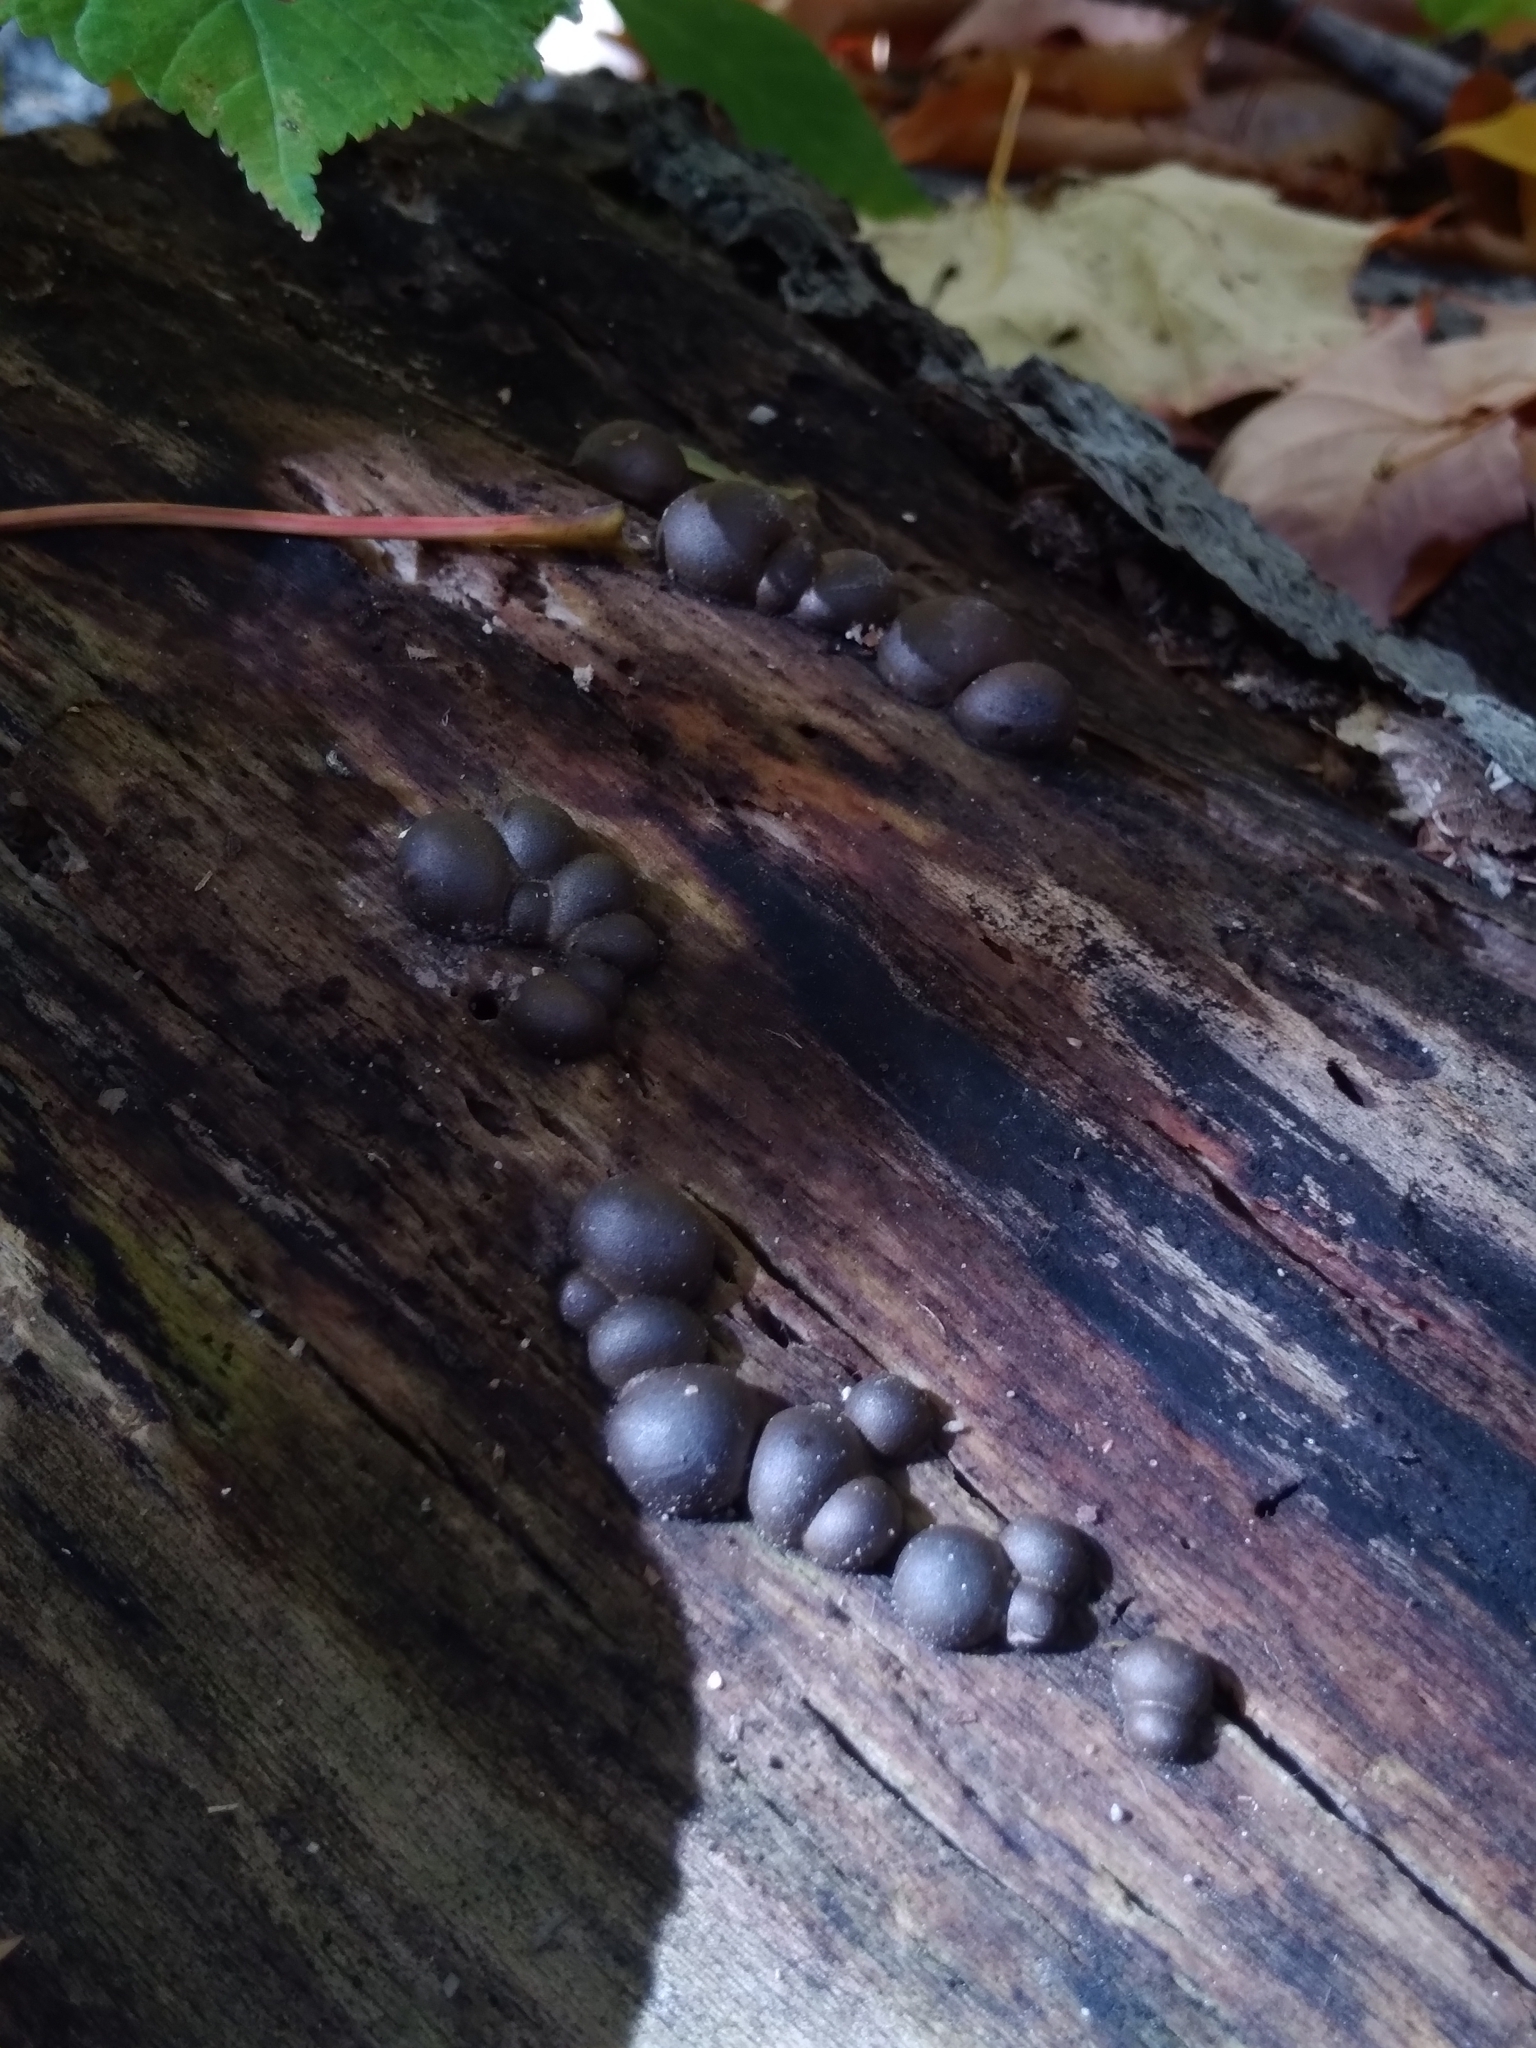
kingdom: Protozoa
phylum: Mycetozoa
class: Myxomycetes
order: Cribrariales
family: Tubiferaceae
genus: Lycogala
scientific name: Lycogala epidendrum
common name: Wolf's milk
